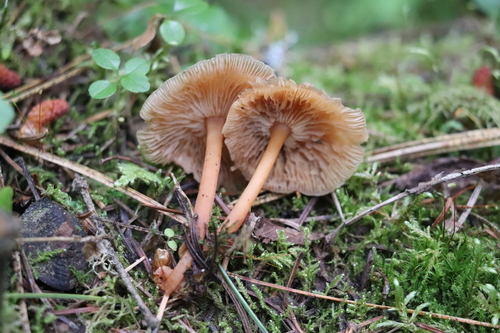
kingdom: Fungi
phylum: Basidiomycota
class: Agaricomycetes
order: Agaricales
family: Omphalotaceae
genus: Gymnopus
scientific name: Gymnopus dryophilus
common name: Penny top
